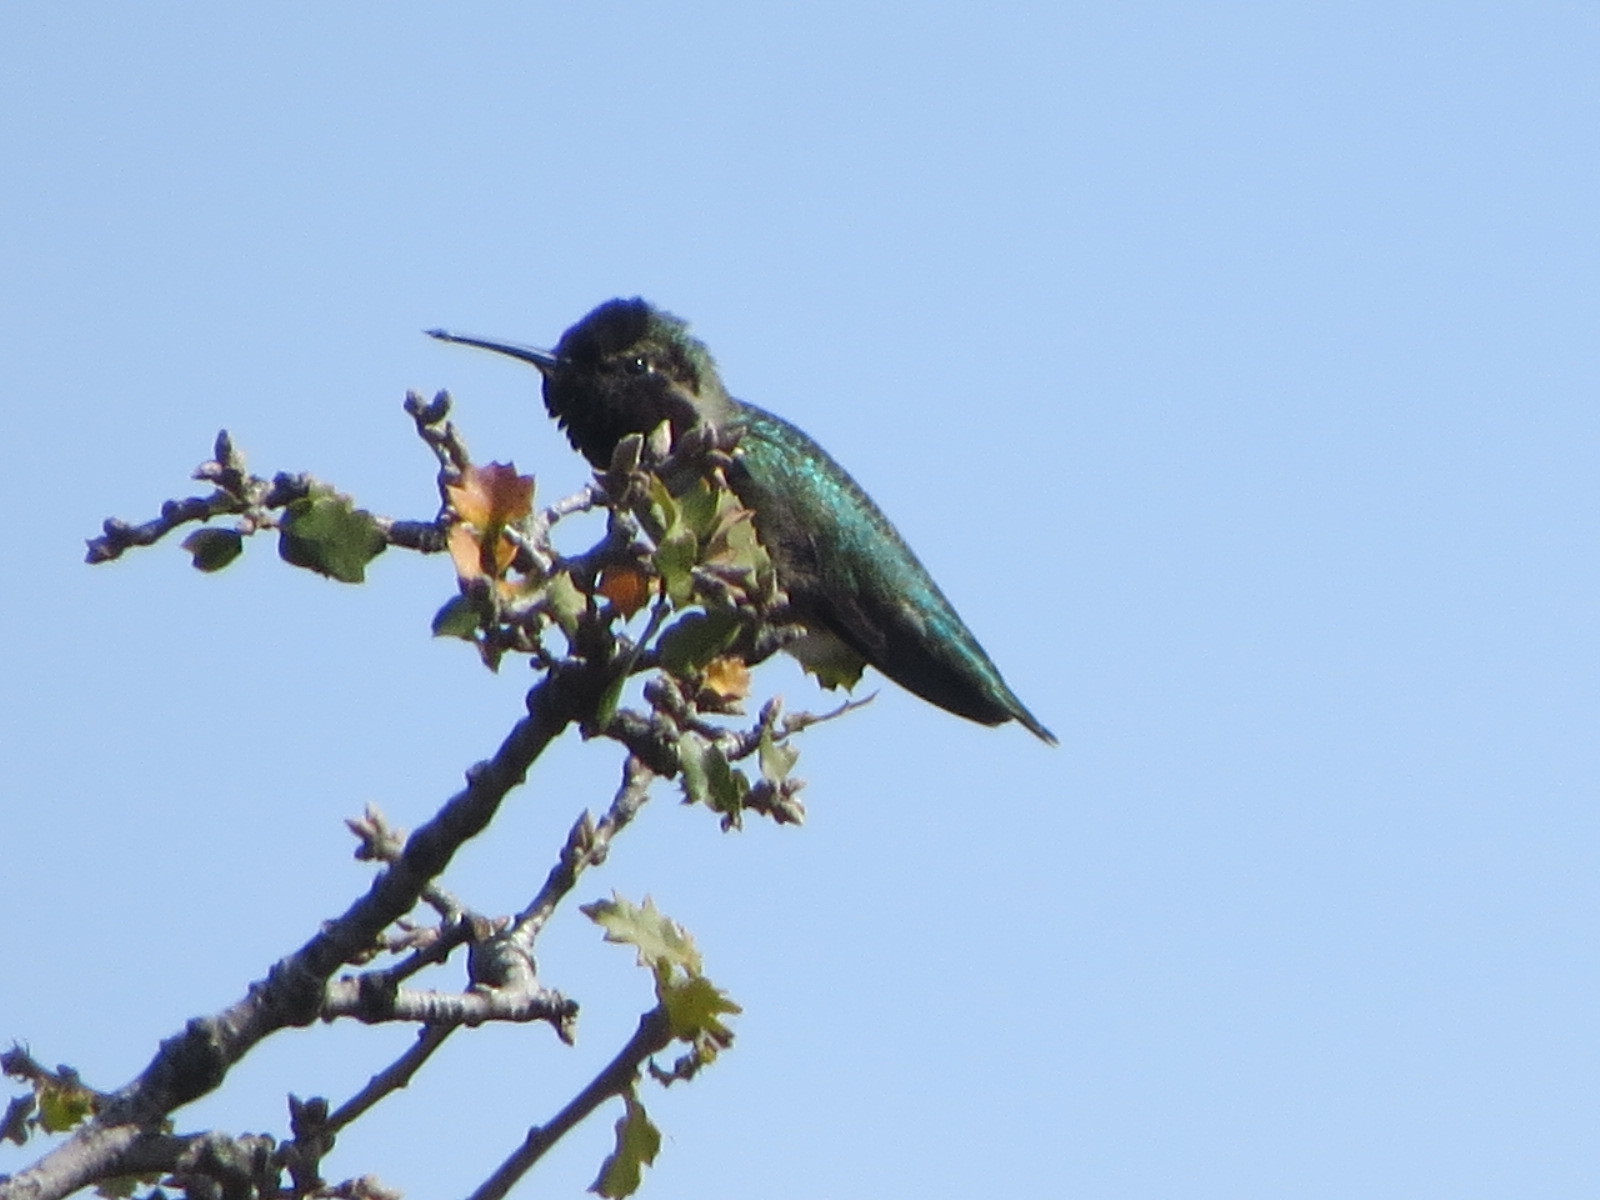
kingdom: Animalia
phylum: Chordata
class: Aves
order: Apodiformes
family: Trochilidae
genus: Calypte
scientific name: Calypte anna
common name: Anna's hummingbird
